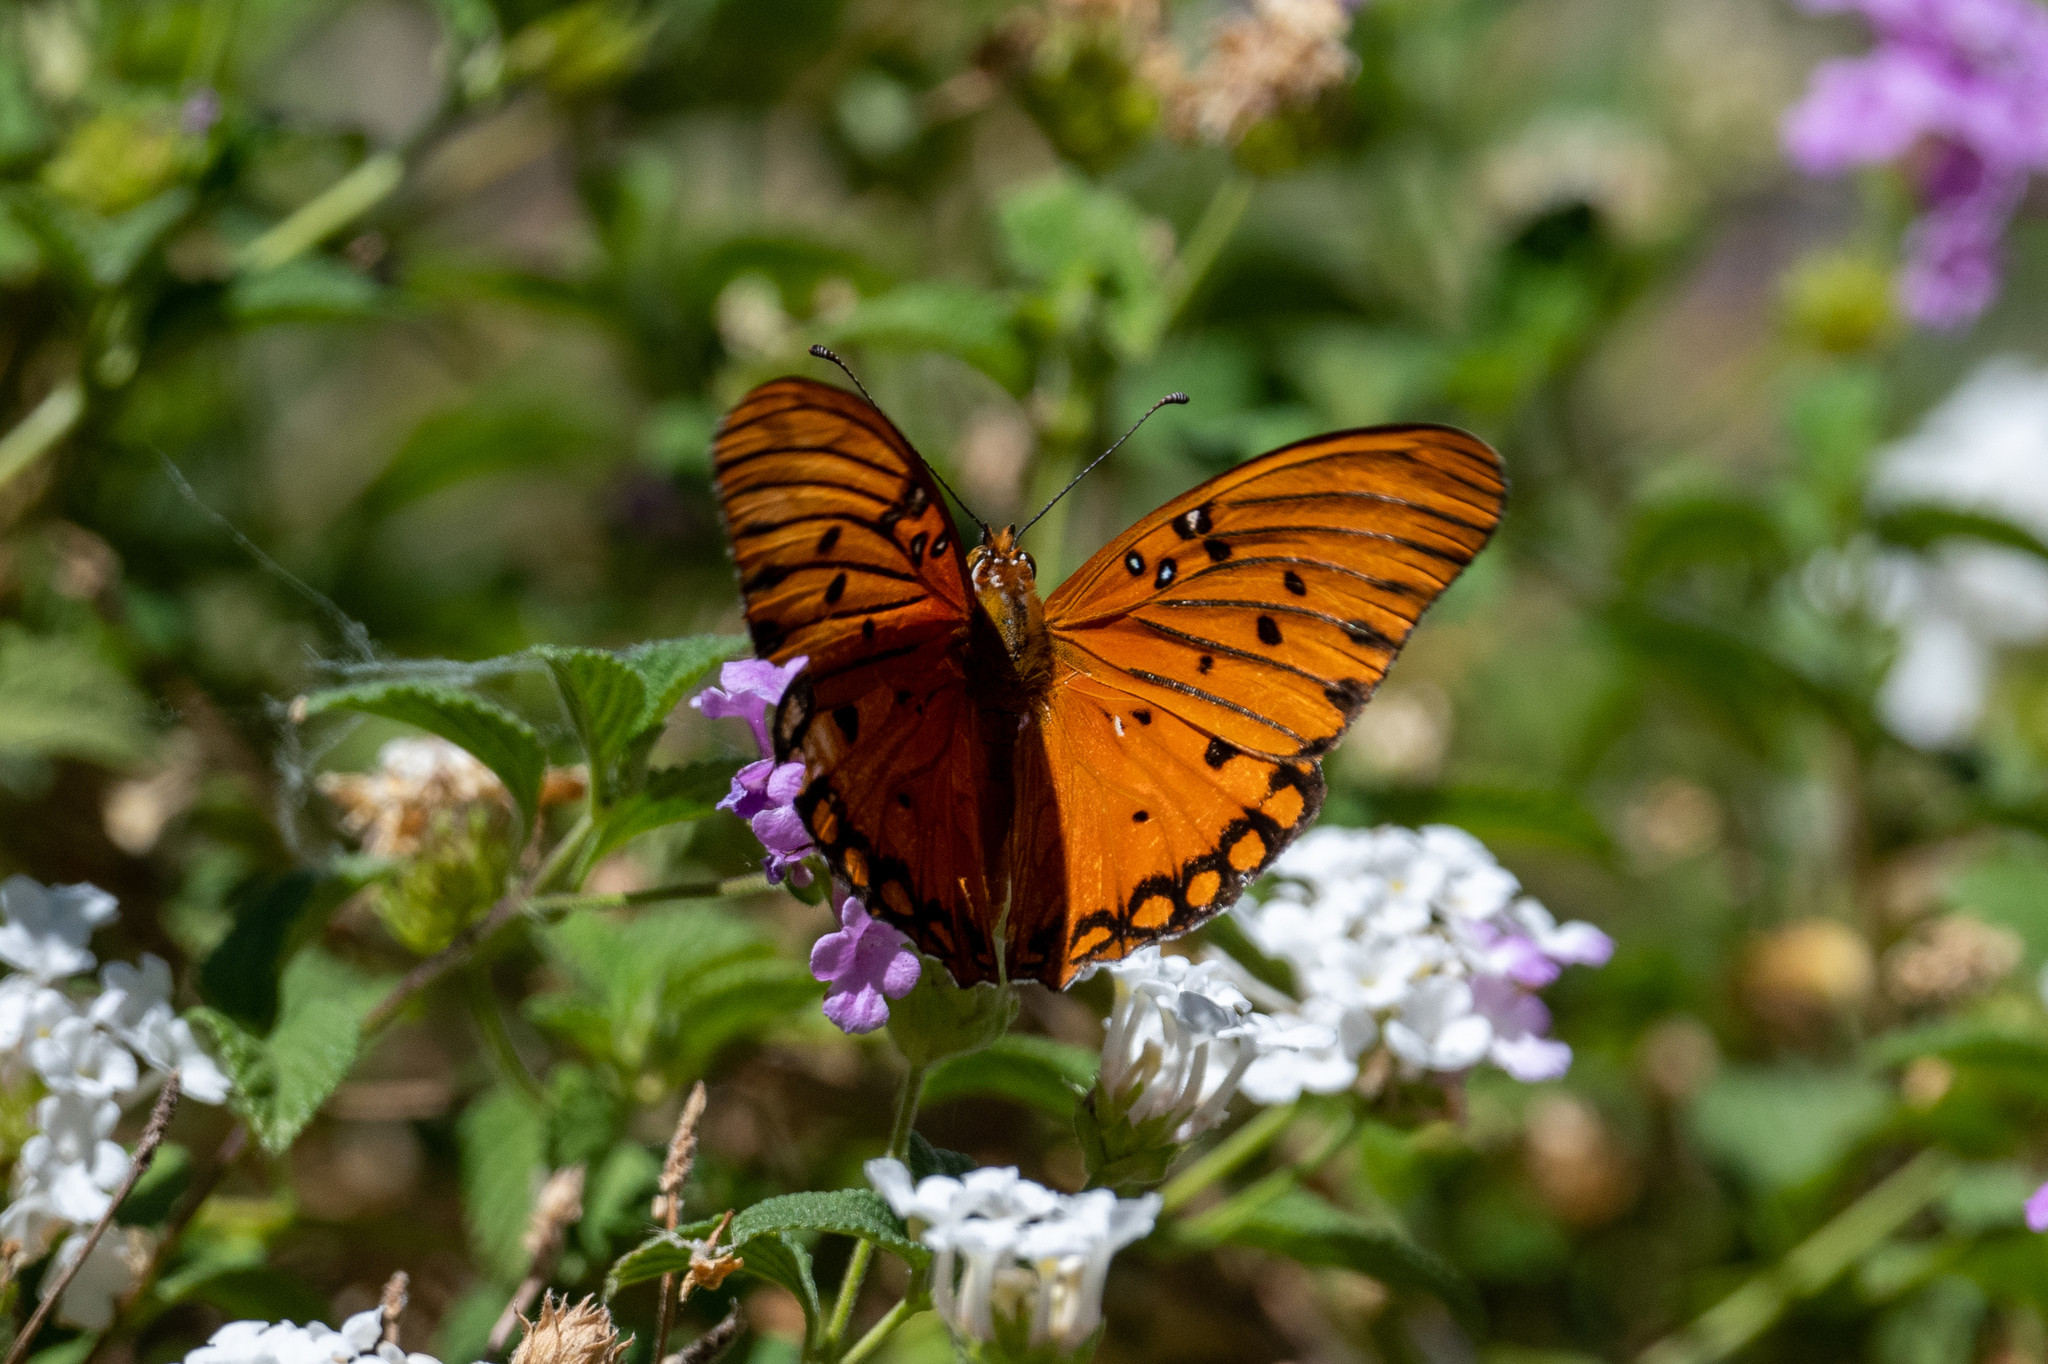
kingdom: Animalia
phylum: Arthropoda
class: Insecta
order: Lepidoptera
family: Nymphalidae
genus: Dione
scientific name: Dione vanillae
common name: Gulf fritillary
